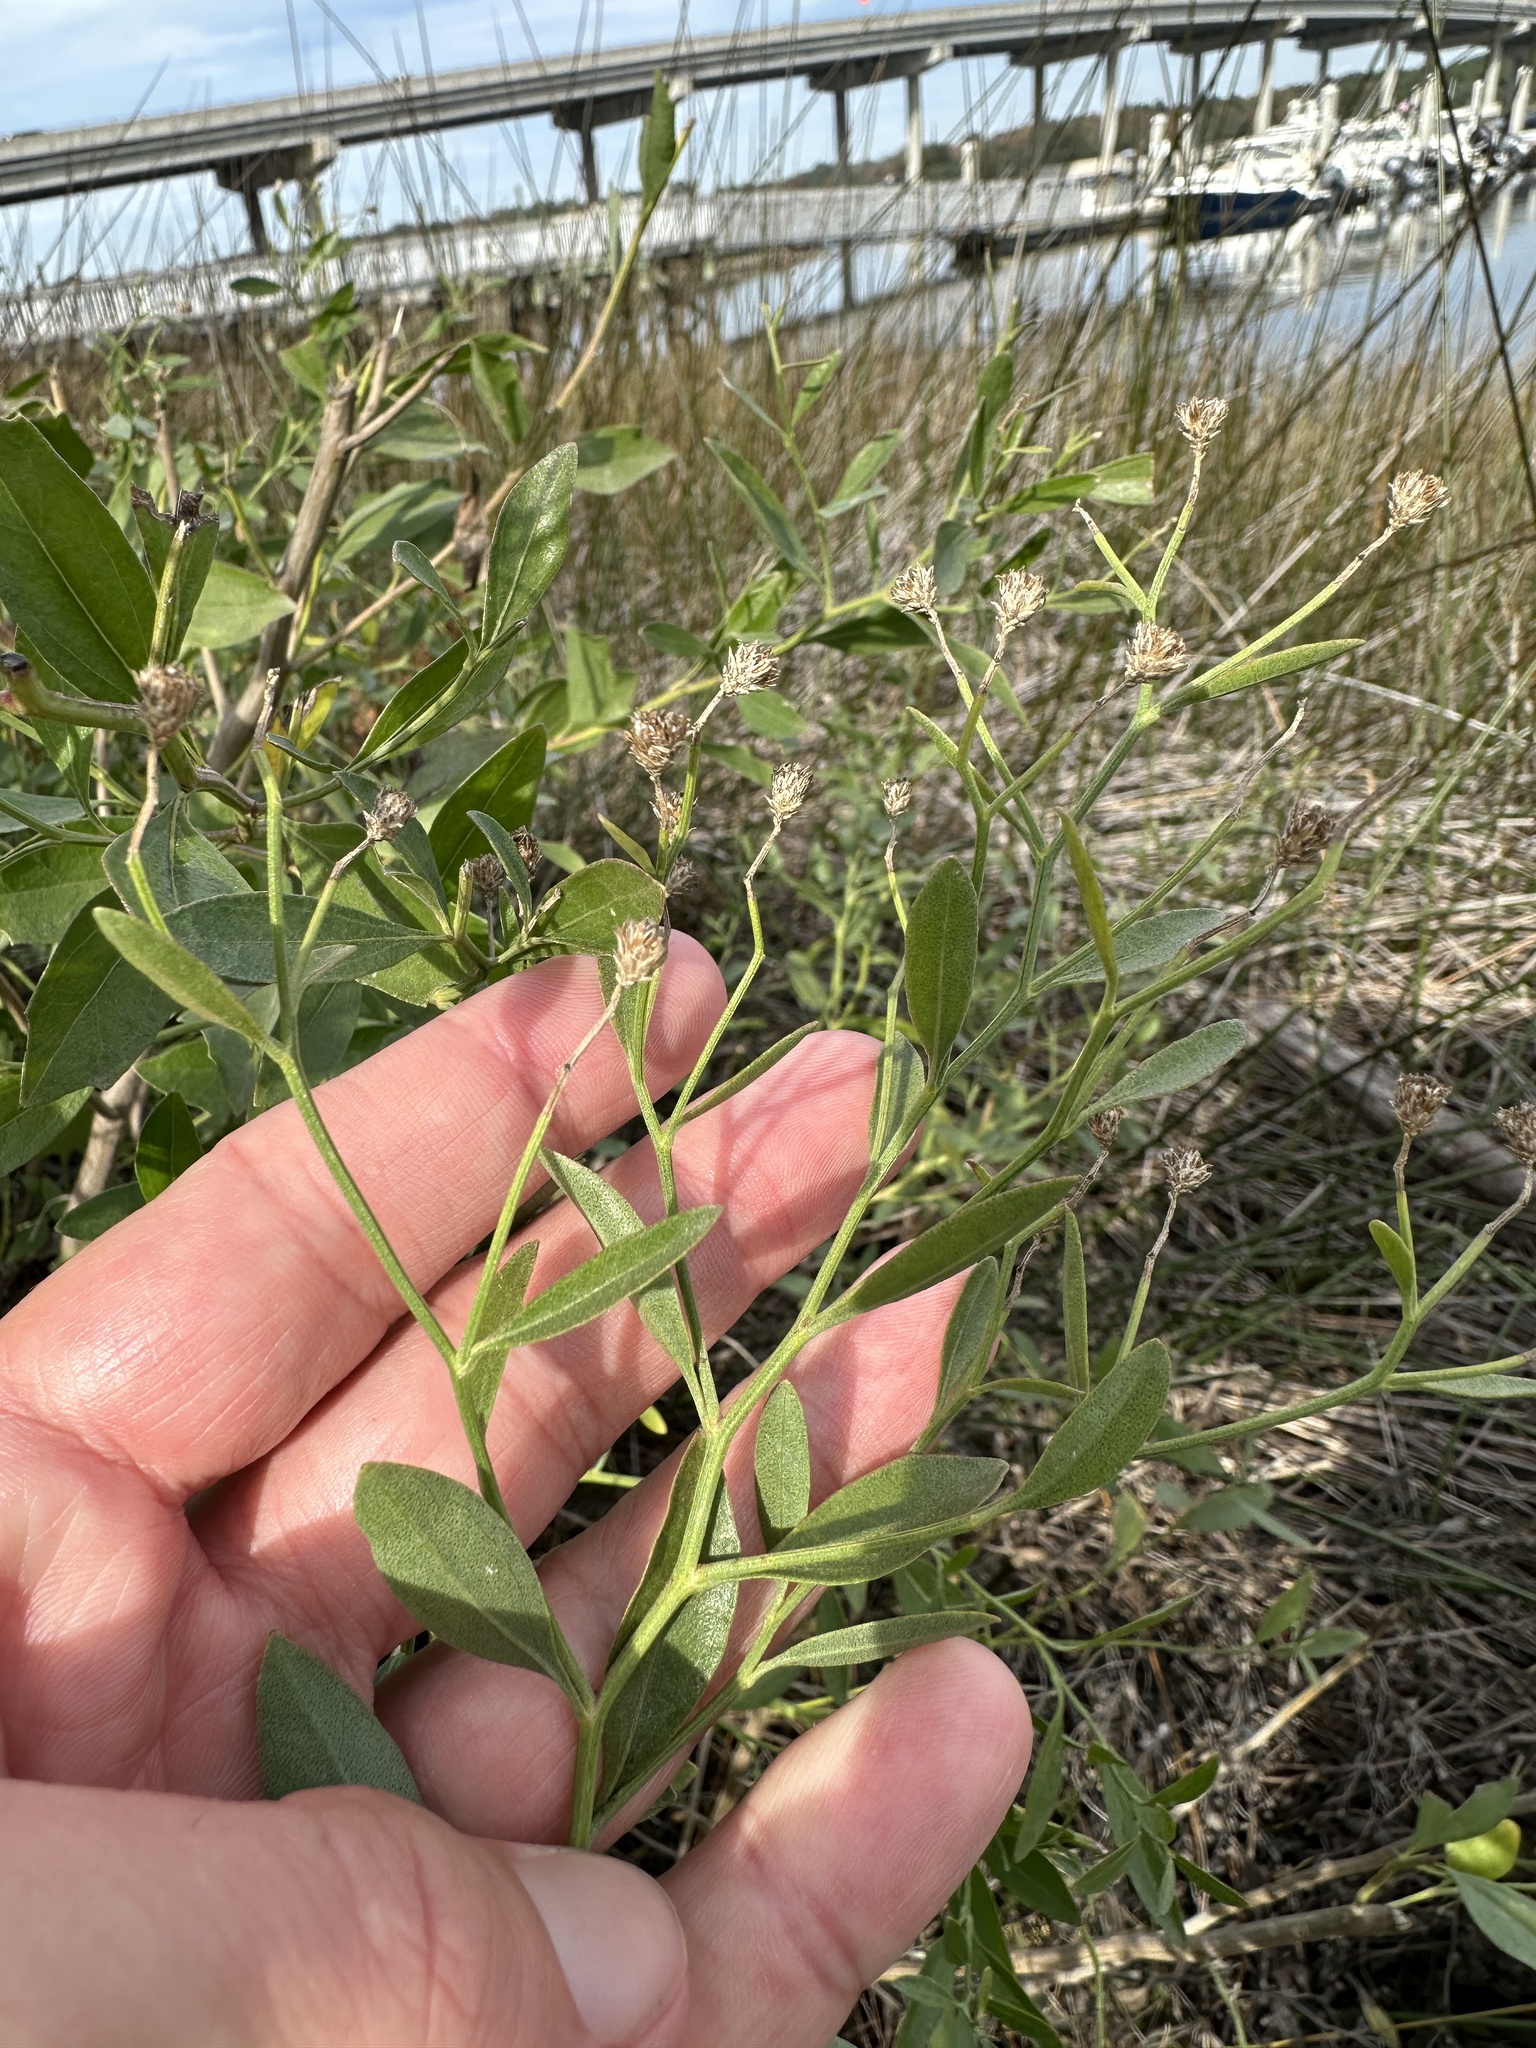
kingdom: Plantae
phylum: Tracheophyta
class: Magnoliopsida
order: Asterales
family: Asteraceae
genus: Baccharis
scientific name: Baccharis halimifolia
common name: Eastern baccharis
